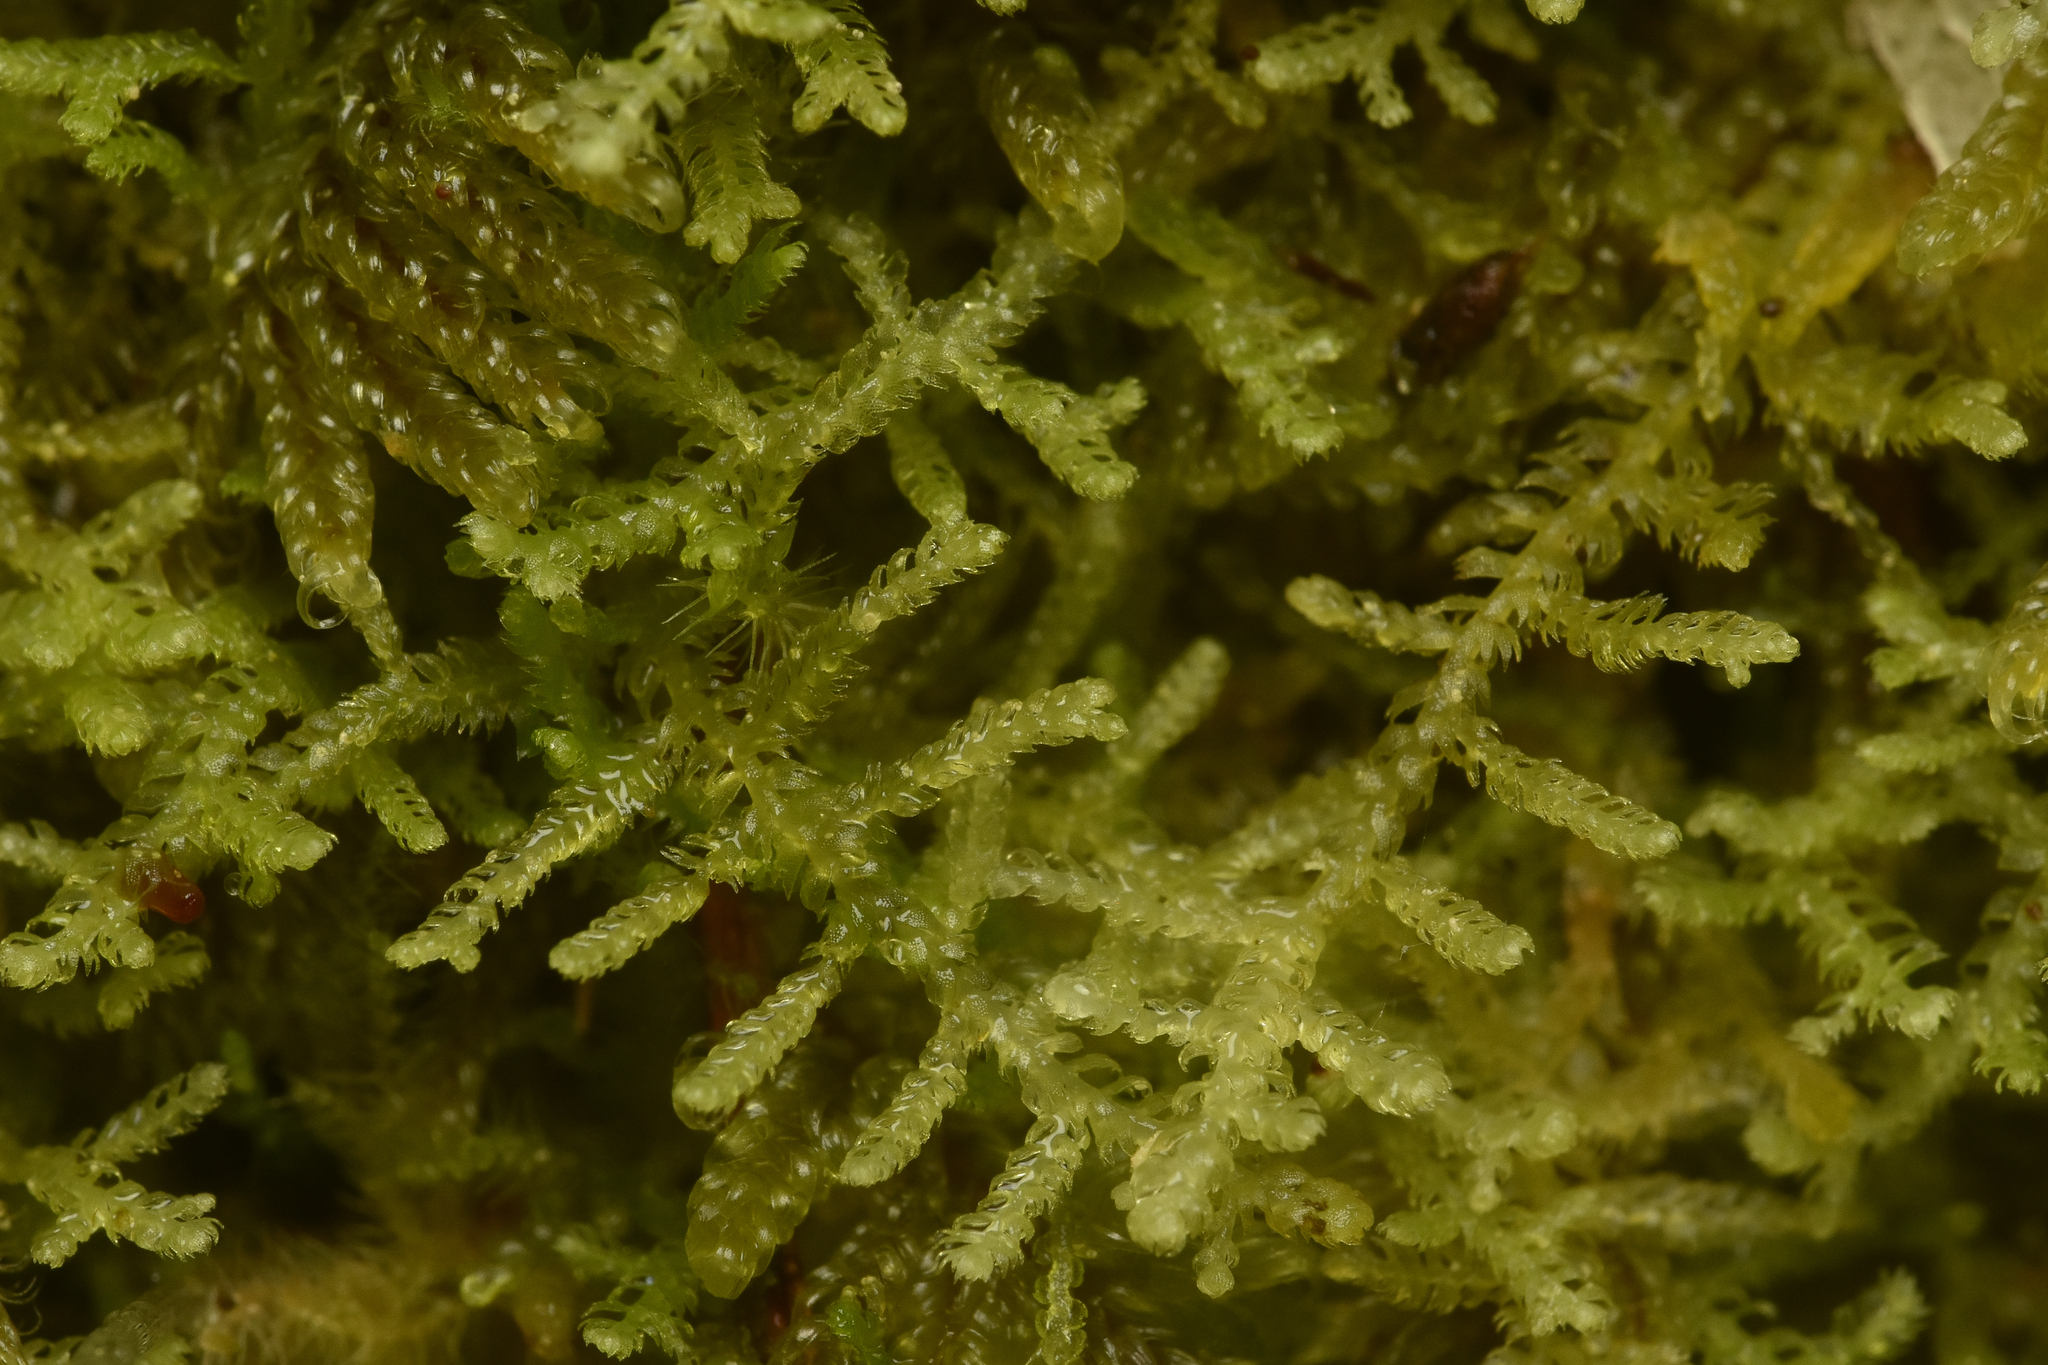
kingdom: Plantae
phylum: Marchantiophyta
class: Jungermanniopsida
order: Jungermanniales
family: Lepidoziaceae
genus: Lepidozia
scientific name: Lepidozia reptans
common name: Creeping fingerwort
